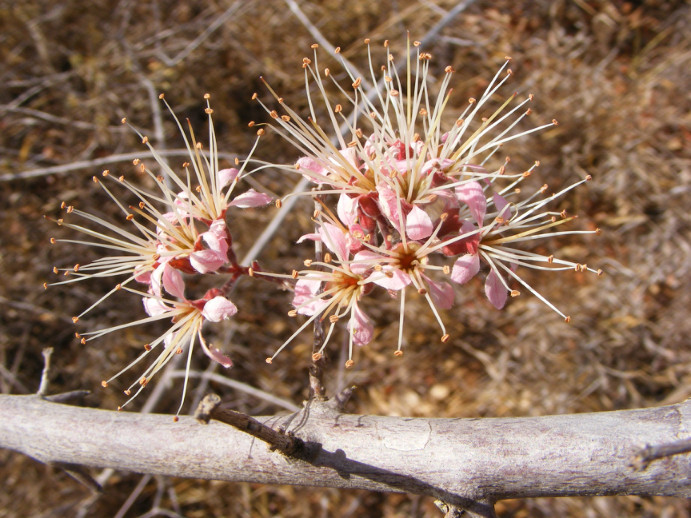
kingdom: Plantae
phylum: Tracheophyta
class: Magnoliopsida
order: Myrtales
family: Combretaceae
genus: Combretum
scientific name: Combretum mossambicense
